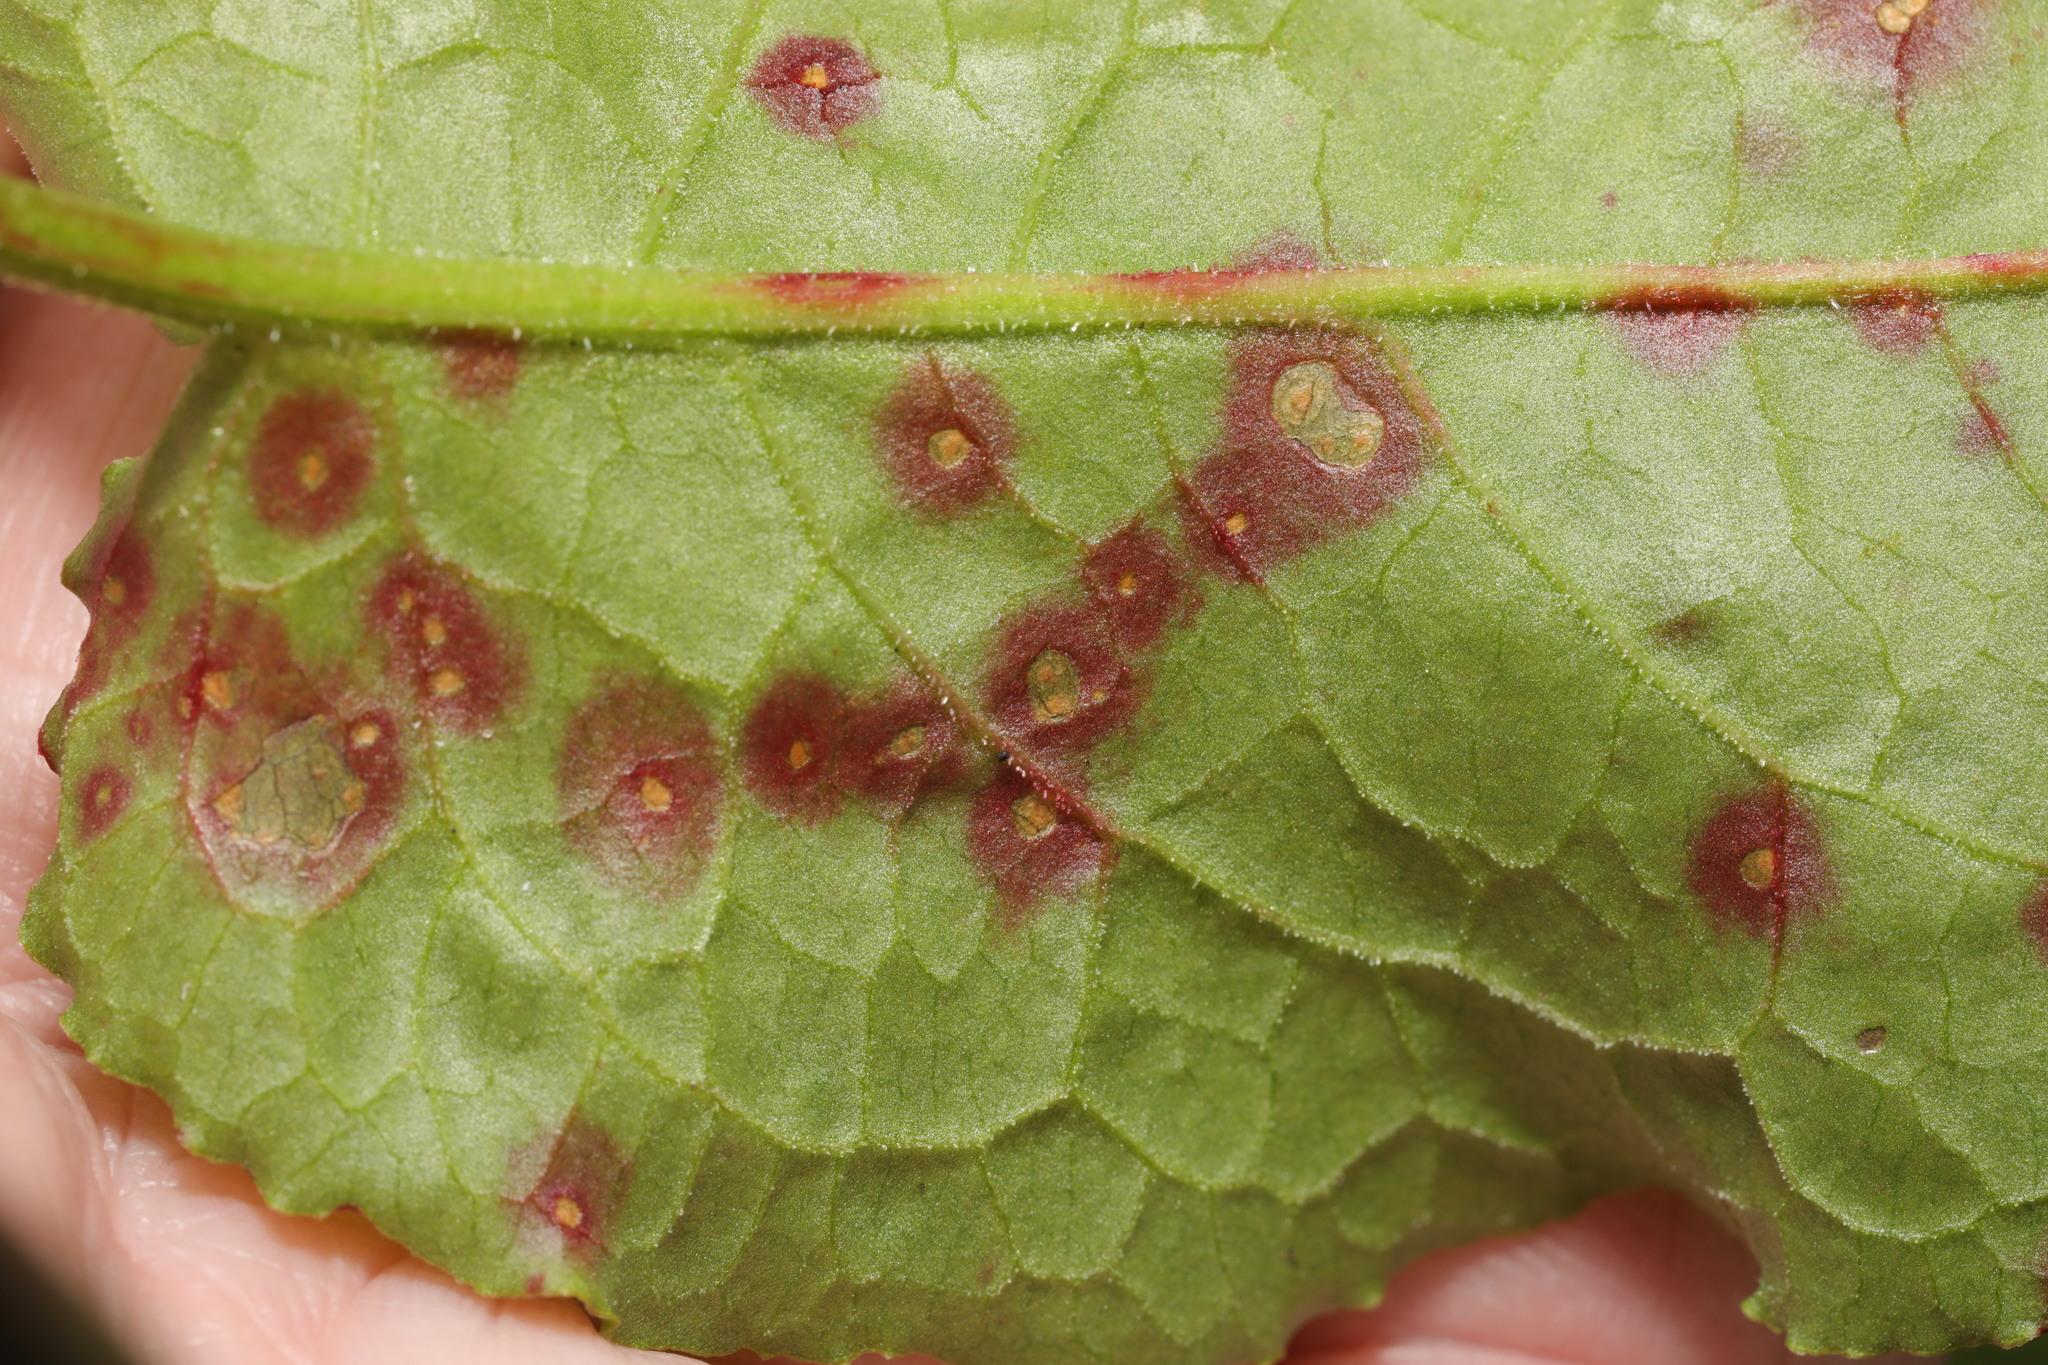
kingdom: Fungi
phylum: Ascomycota
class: Dothideomycetes
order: Mycosphaerellales
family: Mycosphaerellaceae
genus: Ramularia
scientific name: Ramularia rubella
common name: Red dock spot
